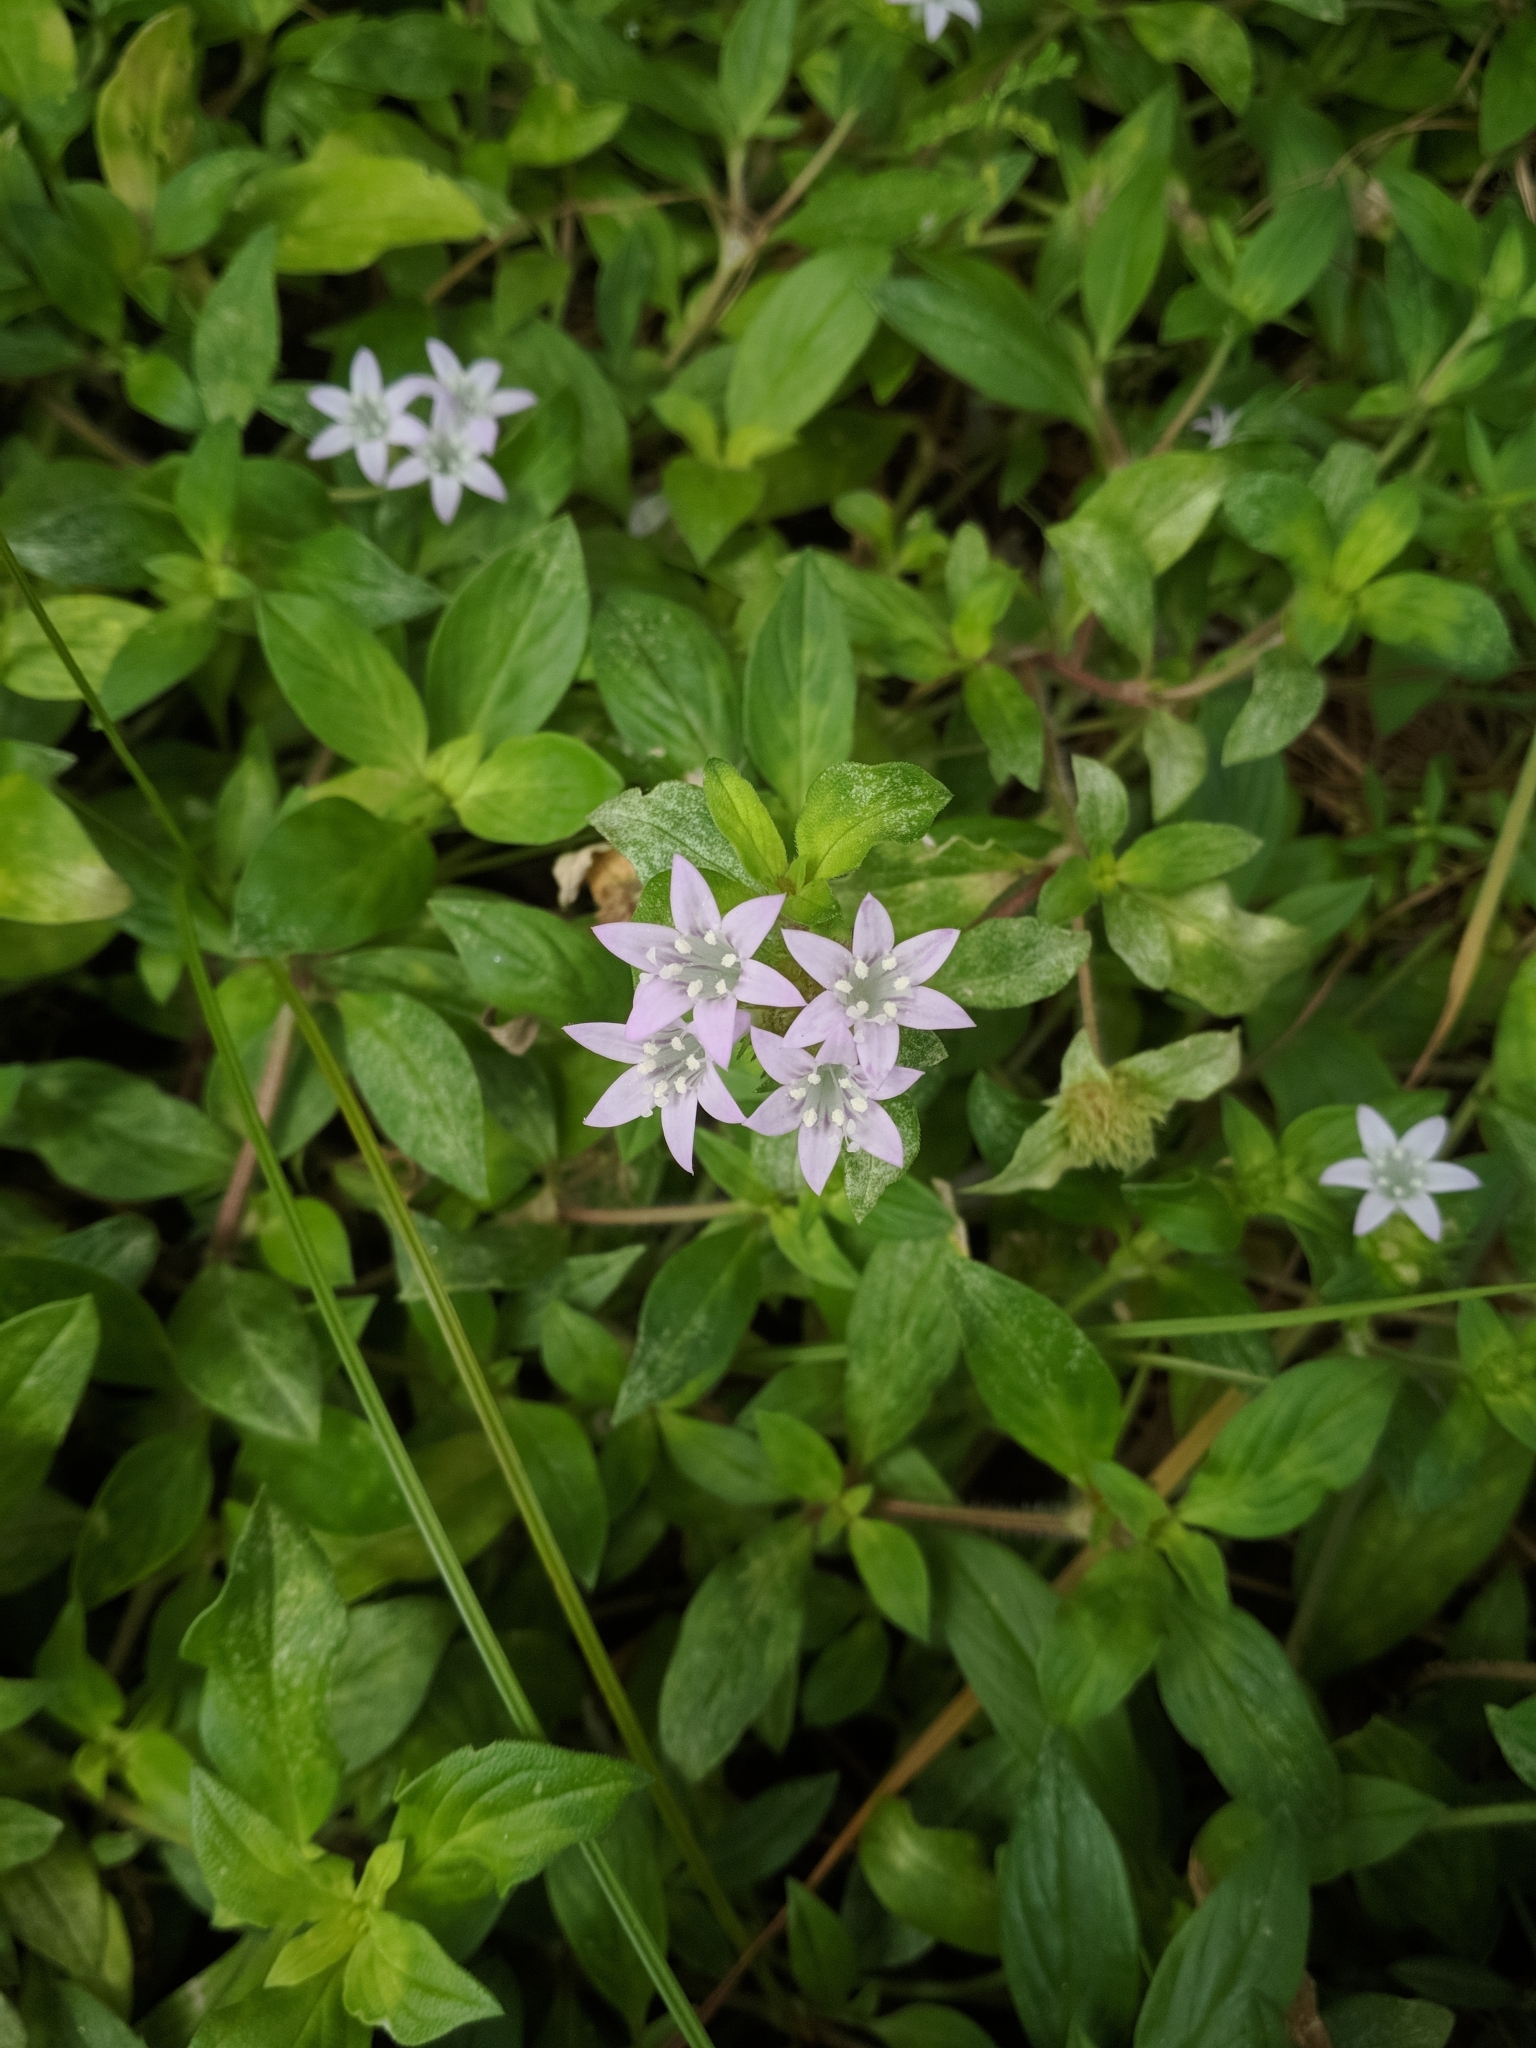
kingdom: Plantae
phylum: Tracheophyta
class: Magnoliopsida
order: Gentianales
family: Rubiaceae
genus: Richardia
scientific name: Richardia grandiflora
